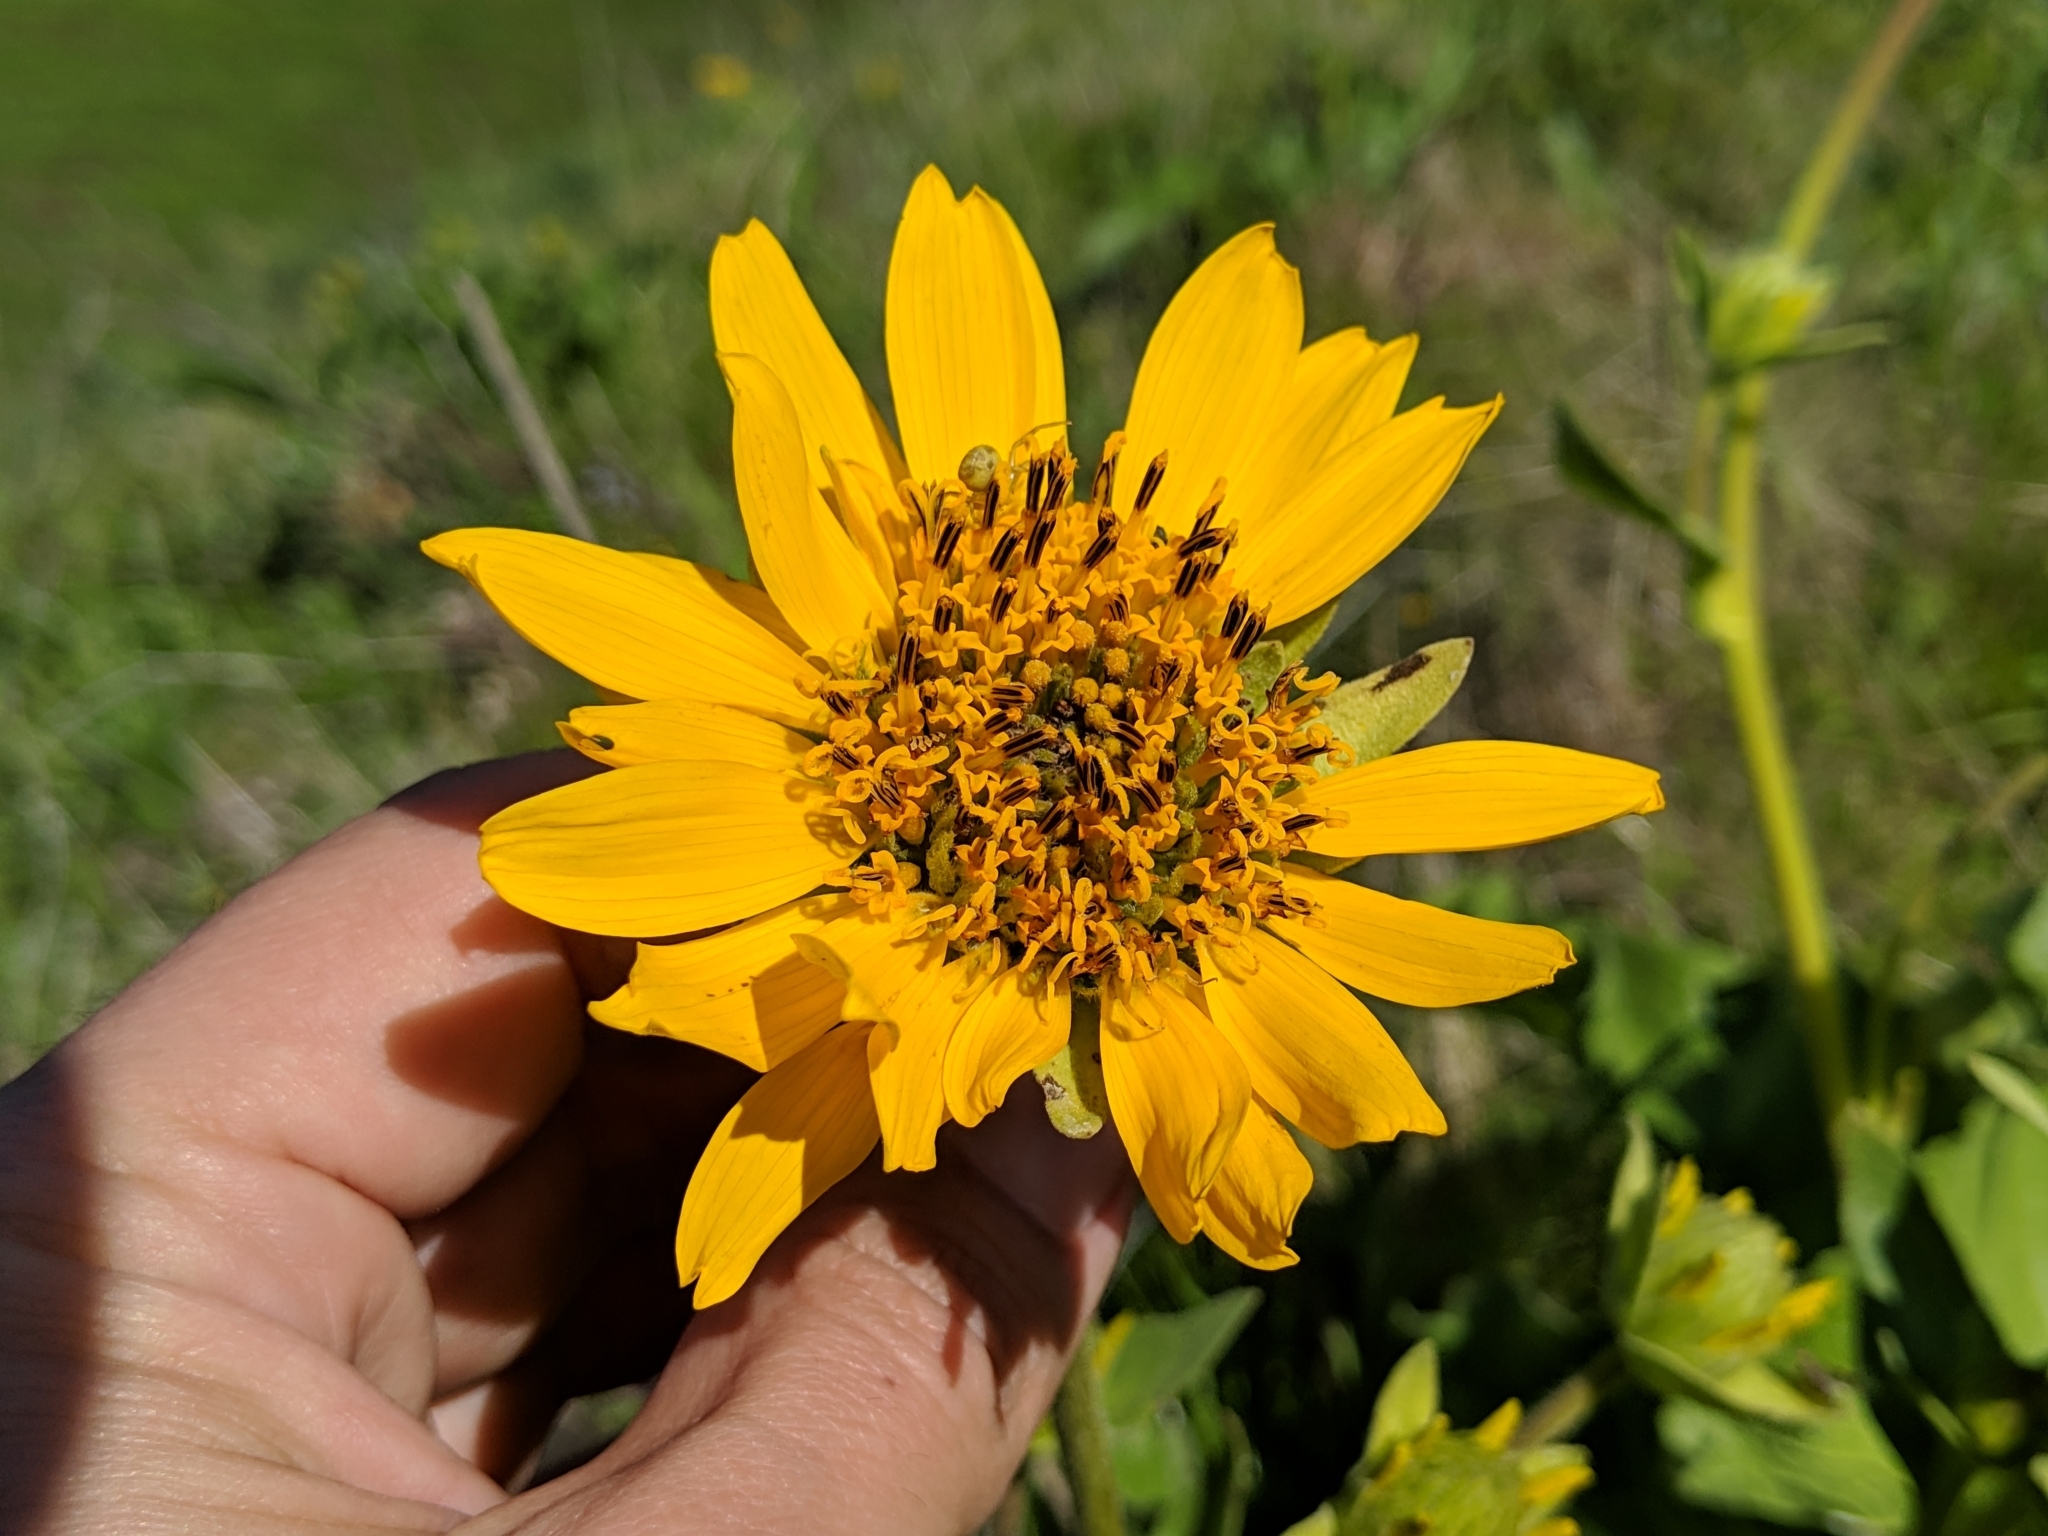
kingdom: Plantae
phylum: Tracheophyta
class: Magnoliopsida
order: Asterales
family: Asteraceae
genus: Balsamorhiza
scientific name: Balsamorhiza deltoidea
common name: Deltoid balsamroot
